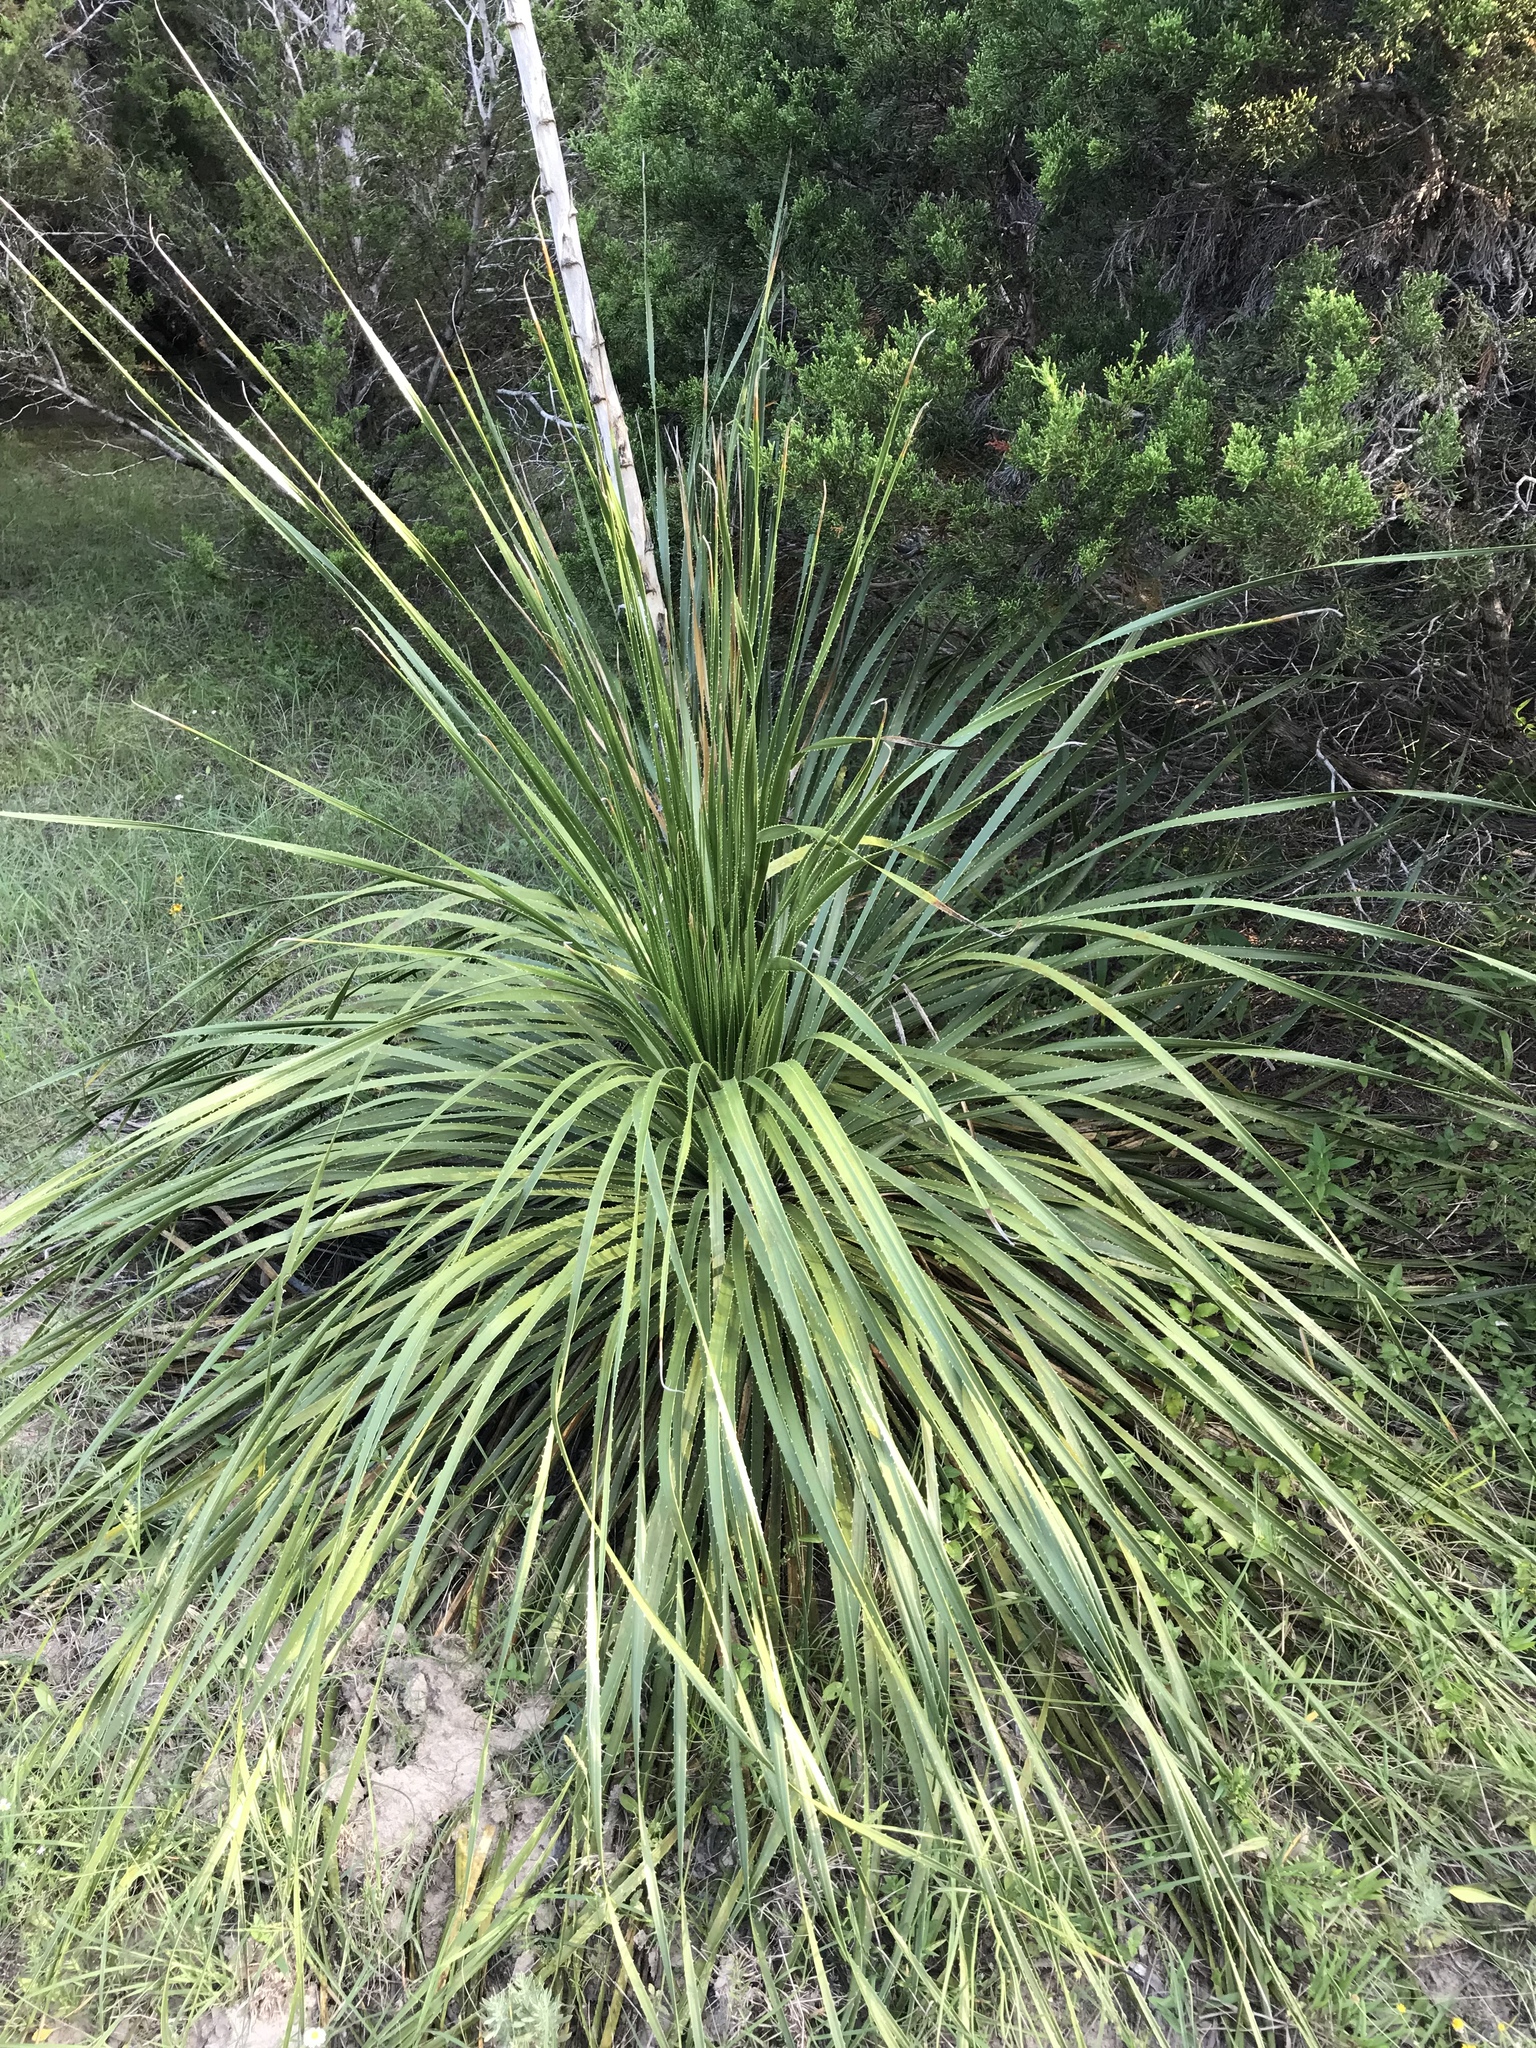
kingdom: Plantae
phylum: Tracheophyta
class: Liliopsida
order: Asparagales
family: Asparagaceae
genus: Dasylirion
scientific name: Dasylirion texanum
